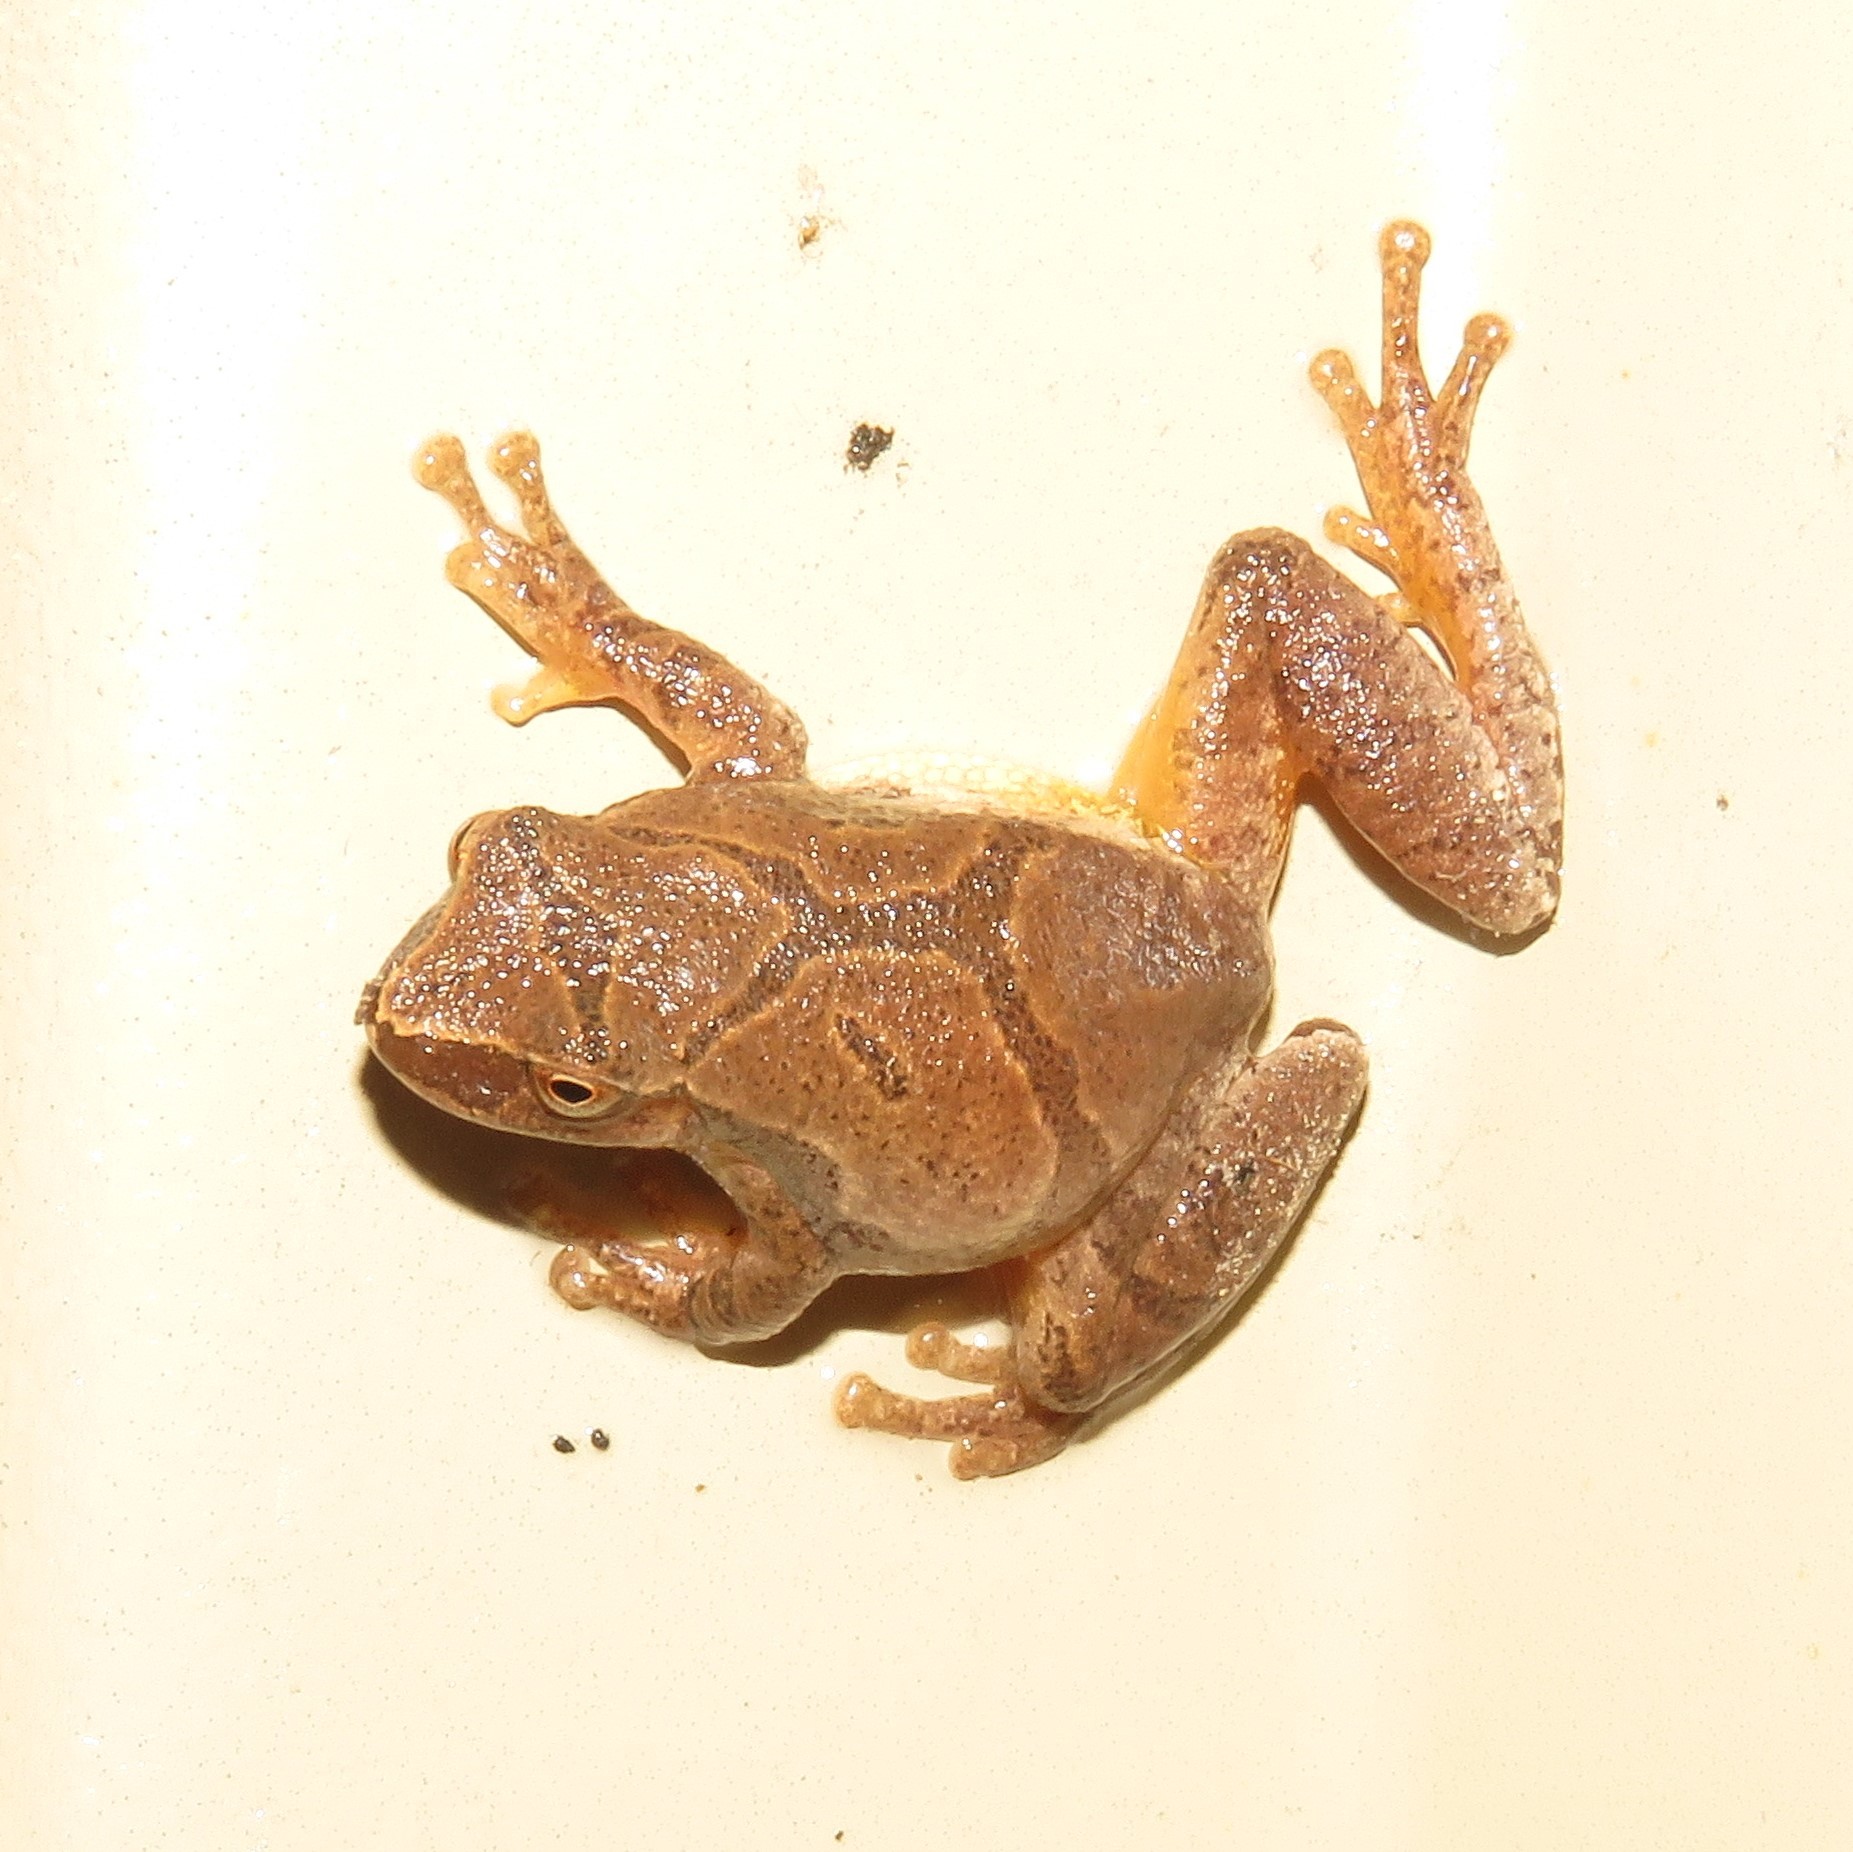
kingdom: Animalia
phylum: Chordata
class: Amphibia
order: Anura
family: Hylidae
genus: Pseudacris
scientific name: Pseudacris crucifer
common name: Spring peeper
